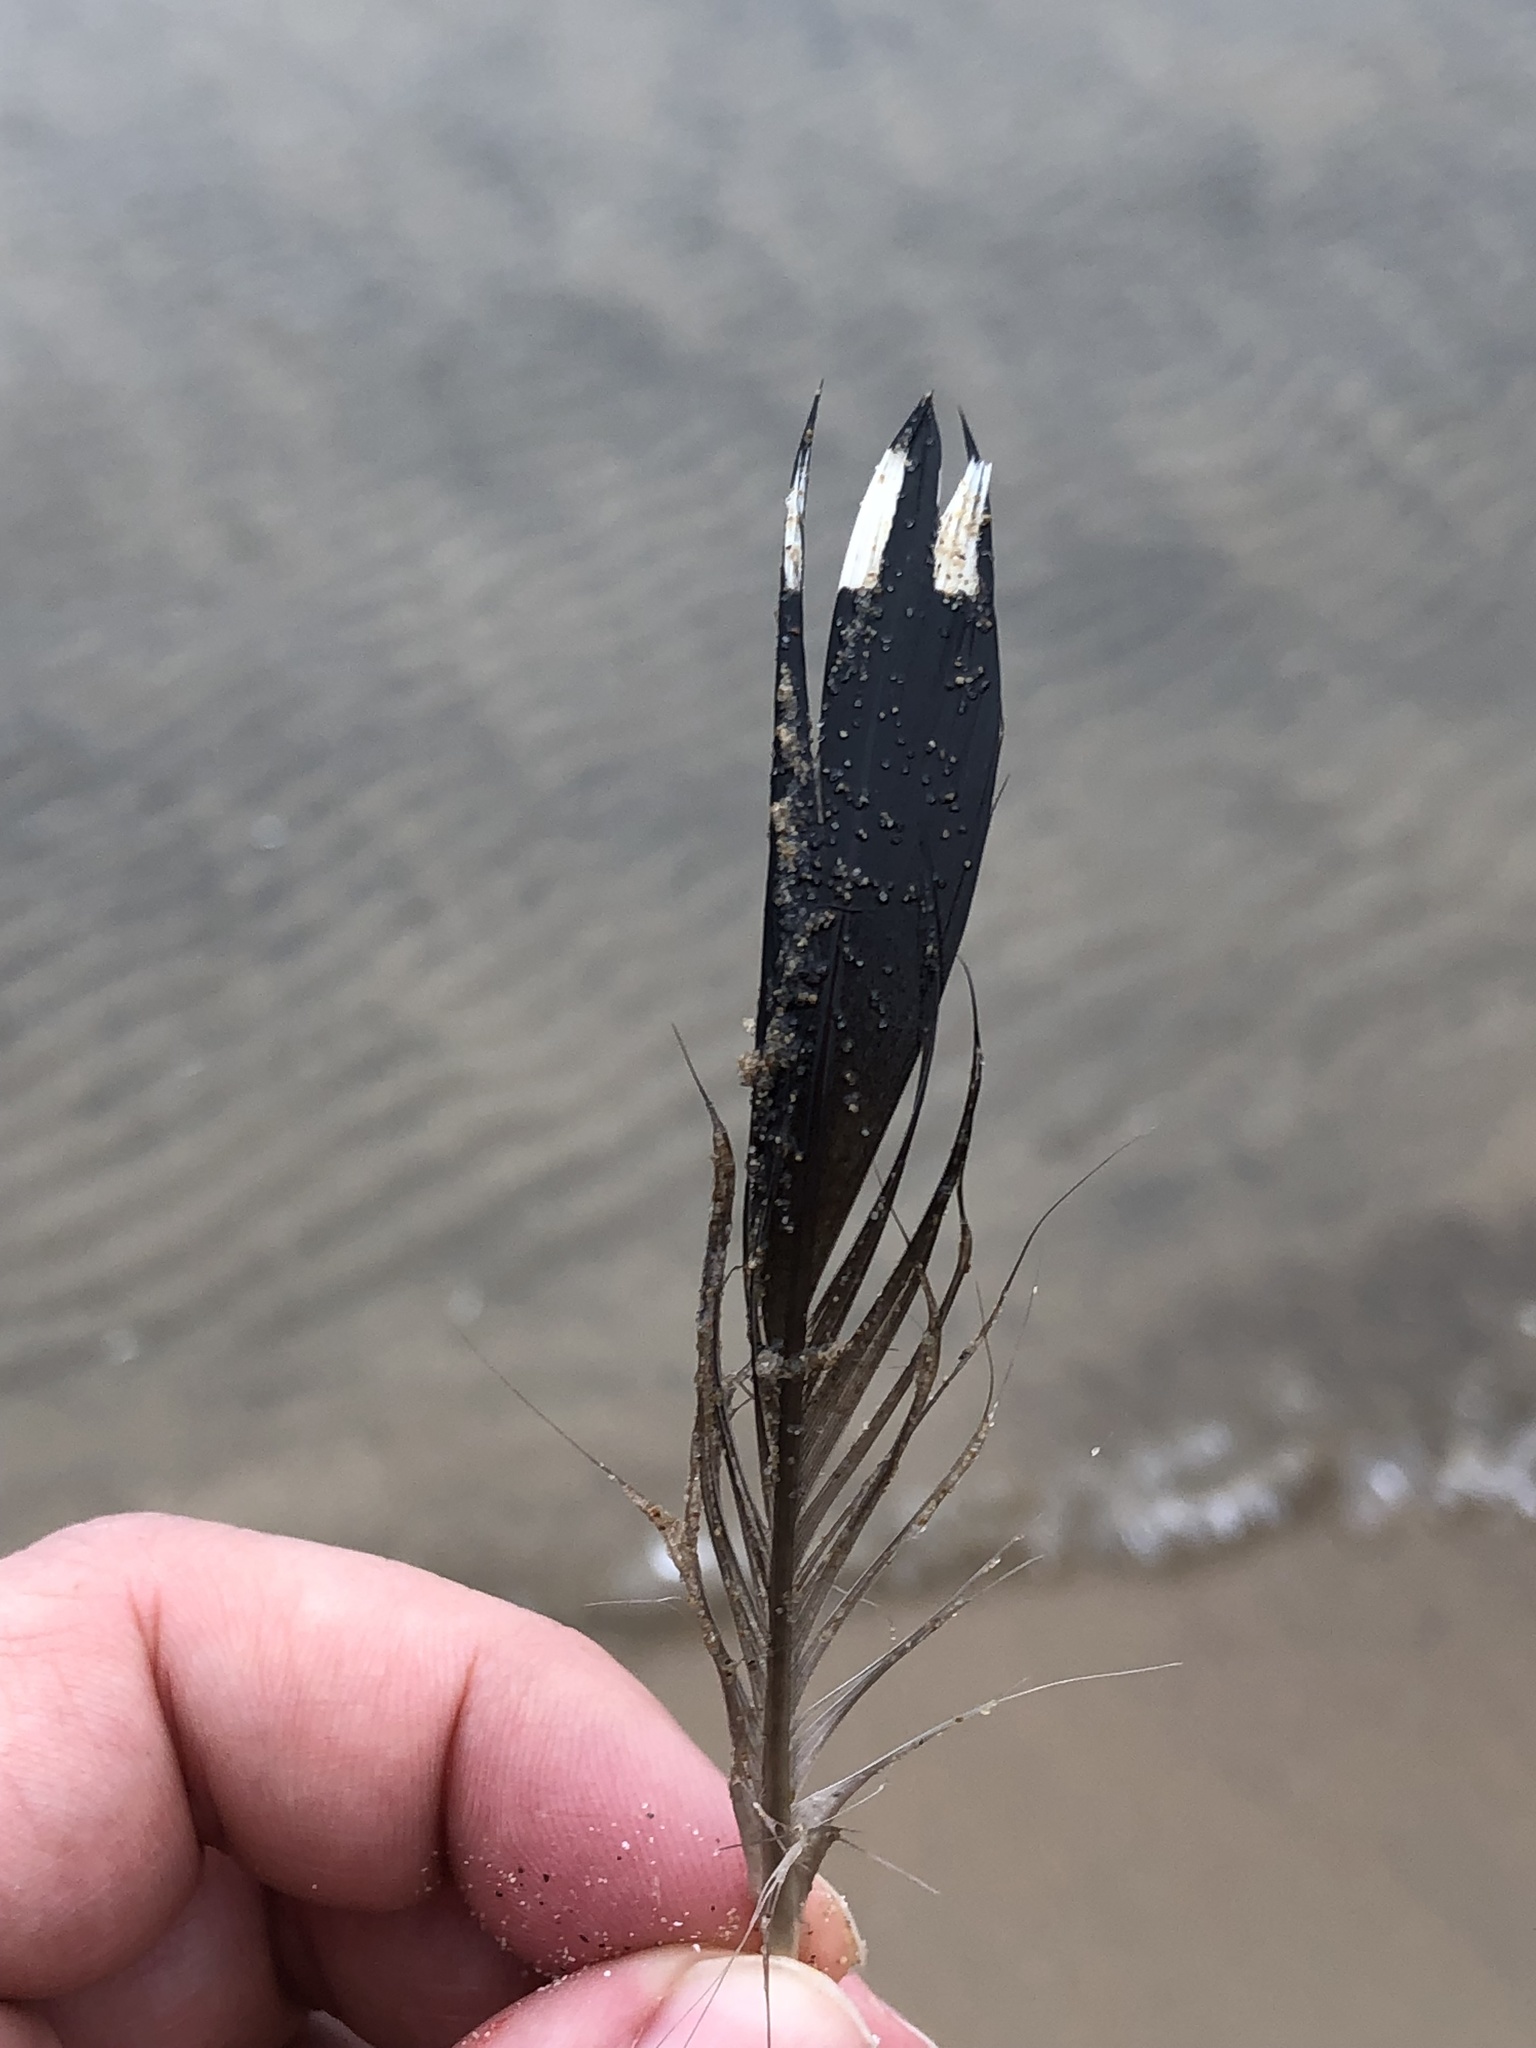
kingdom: Animalia
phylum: Chordata
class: Aves
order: Gaviiformes
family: Gaviidae
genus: Gavia
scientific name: Gavia immer
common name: Common loon
